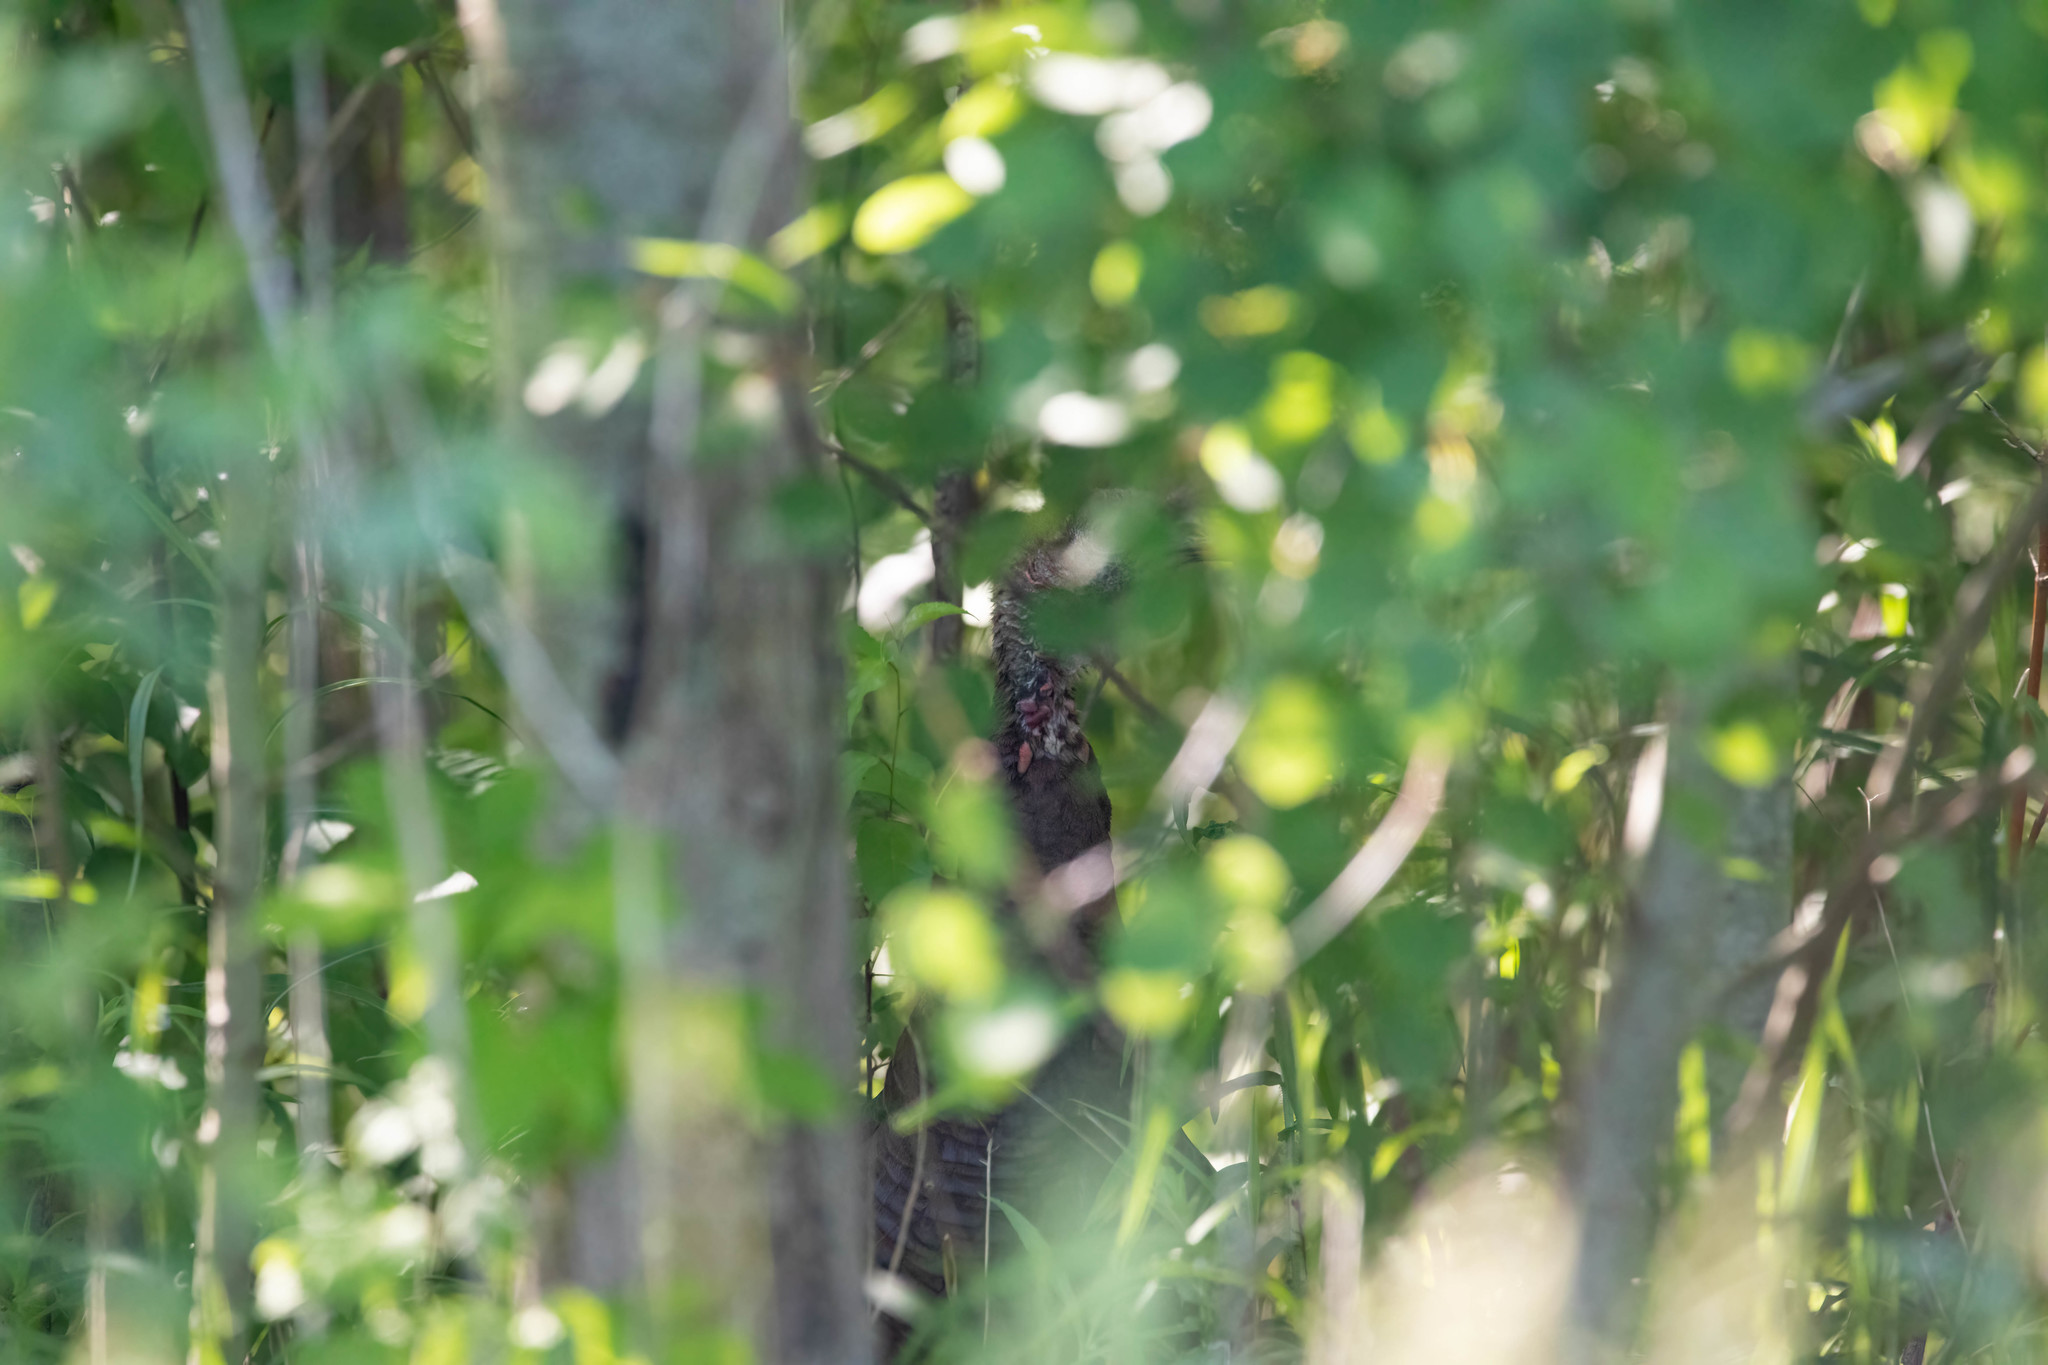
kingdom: Animalia
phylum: Chordata
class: Aves
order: Galliformes
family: Phasianidae
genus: Meleagris
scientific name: Meleagris gallopavo
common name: Wild turkey
